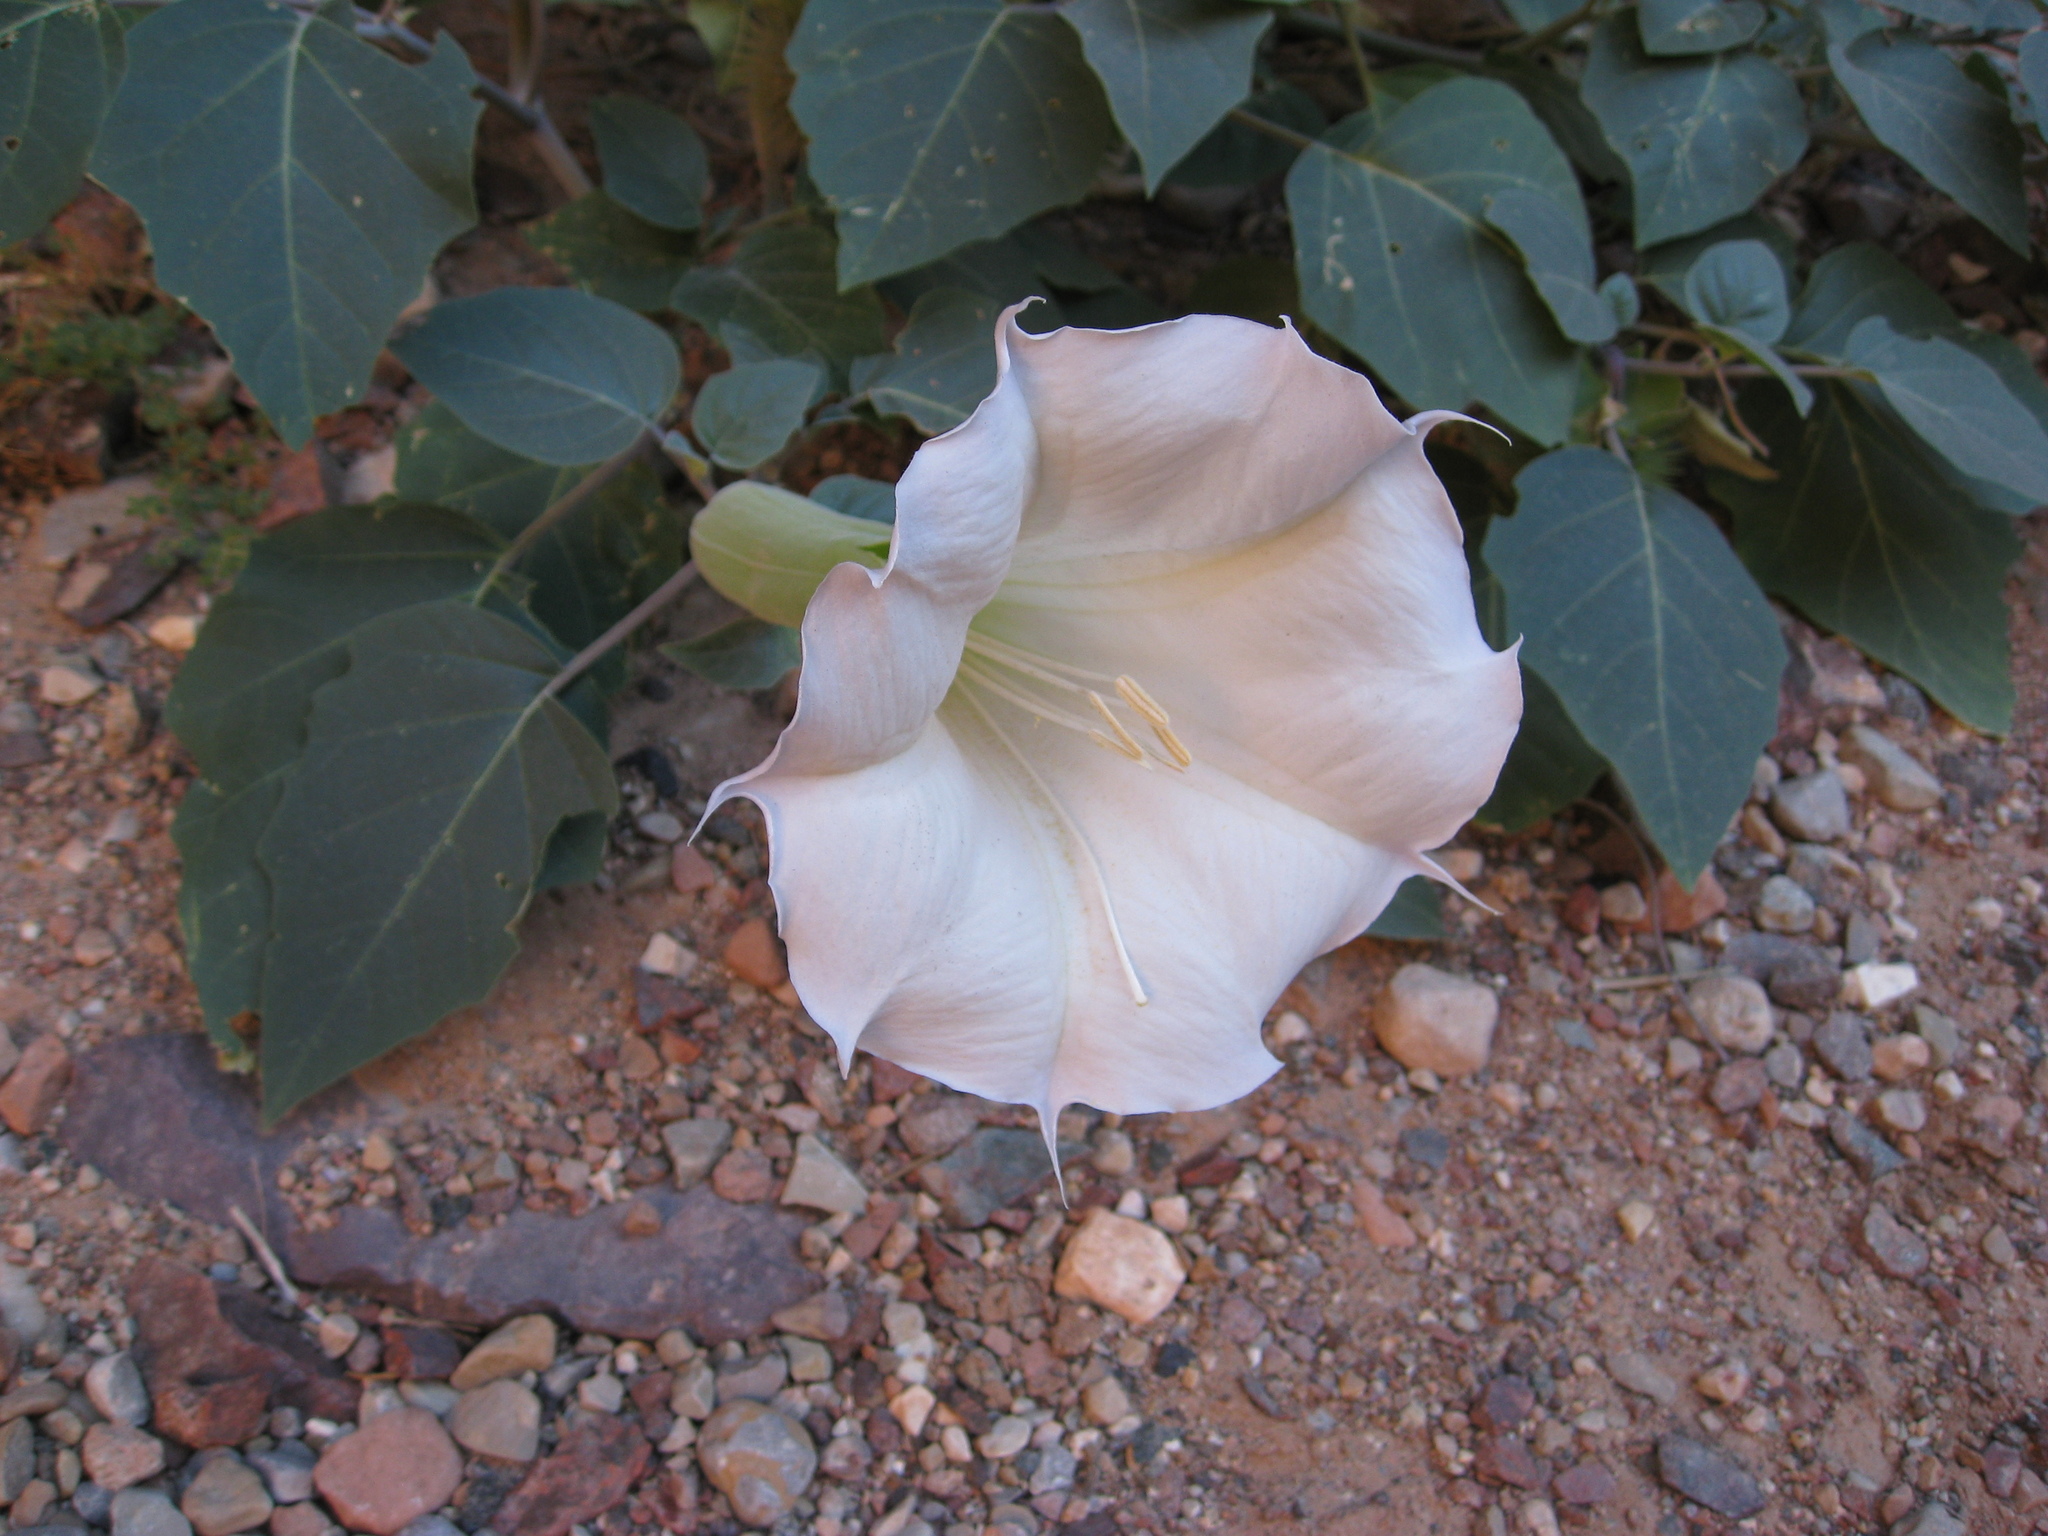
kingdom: Plantae
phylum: Tracheophyta
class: Magnoliopsida
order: Solanales
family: Solanaceae
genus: Datura
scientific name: Datura wrightii
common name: Sacred thorn-apple
